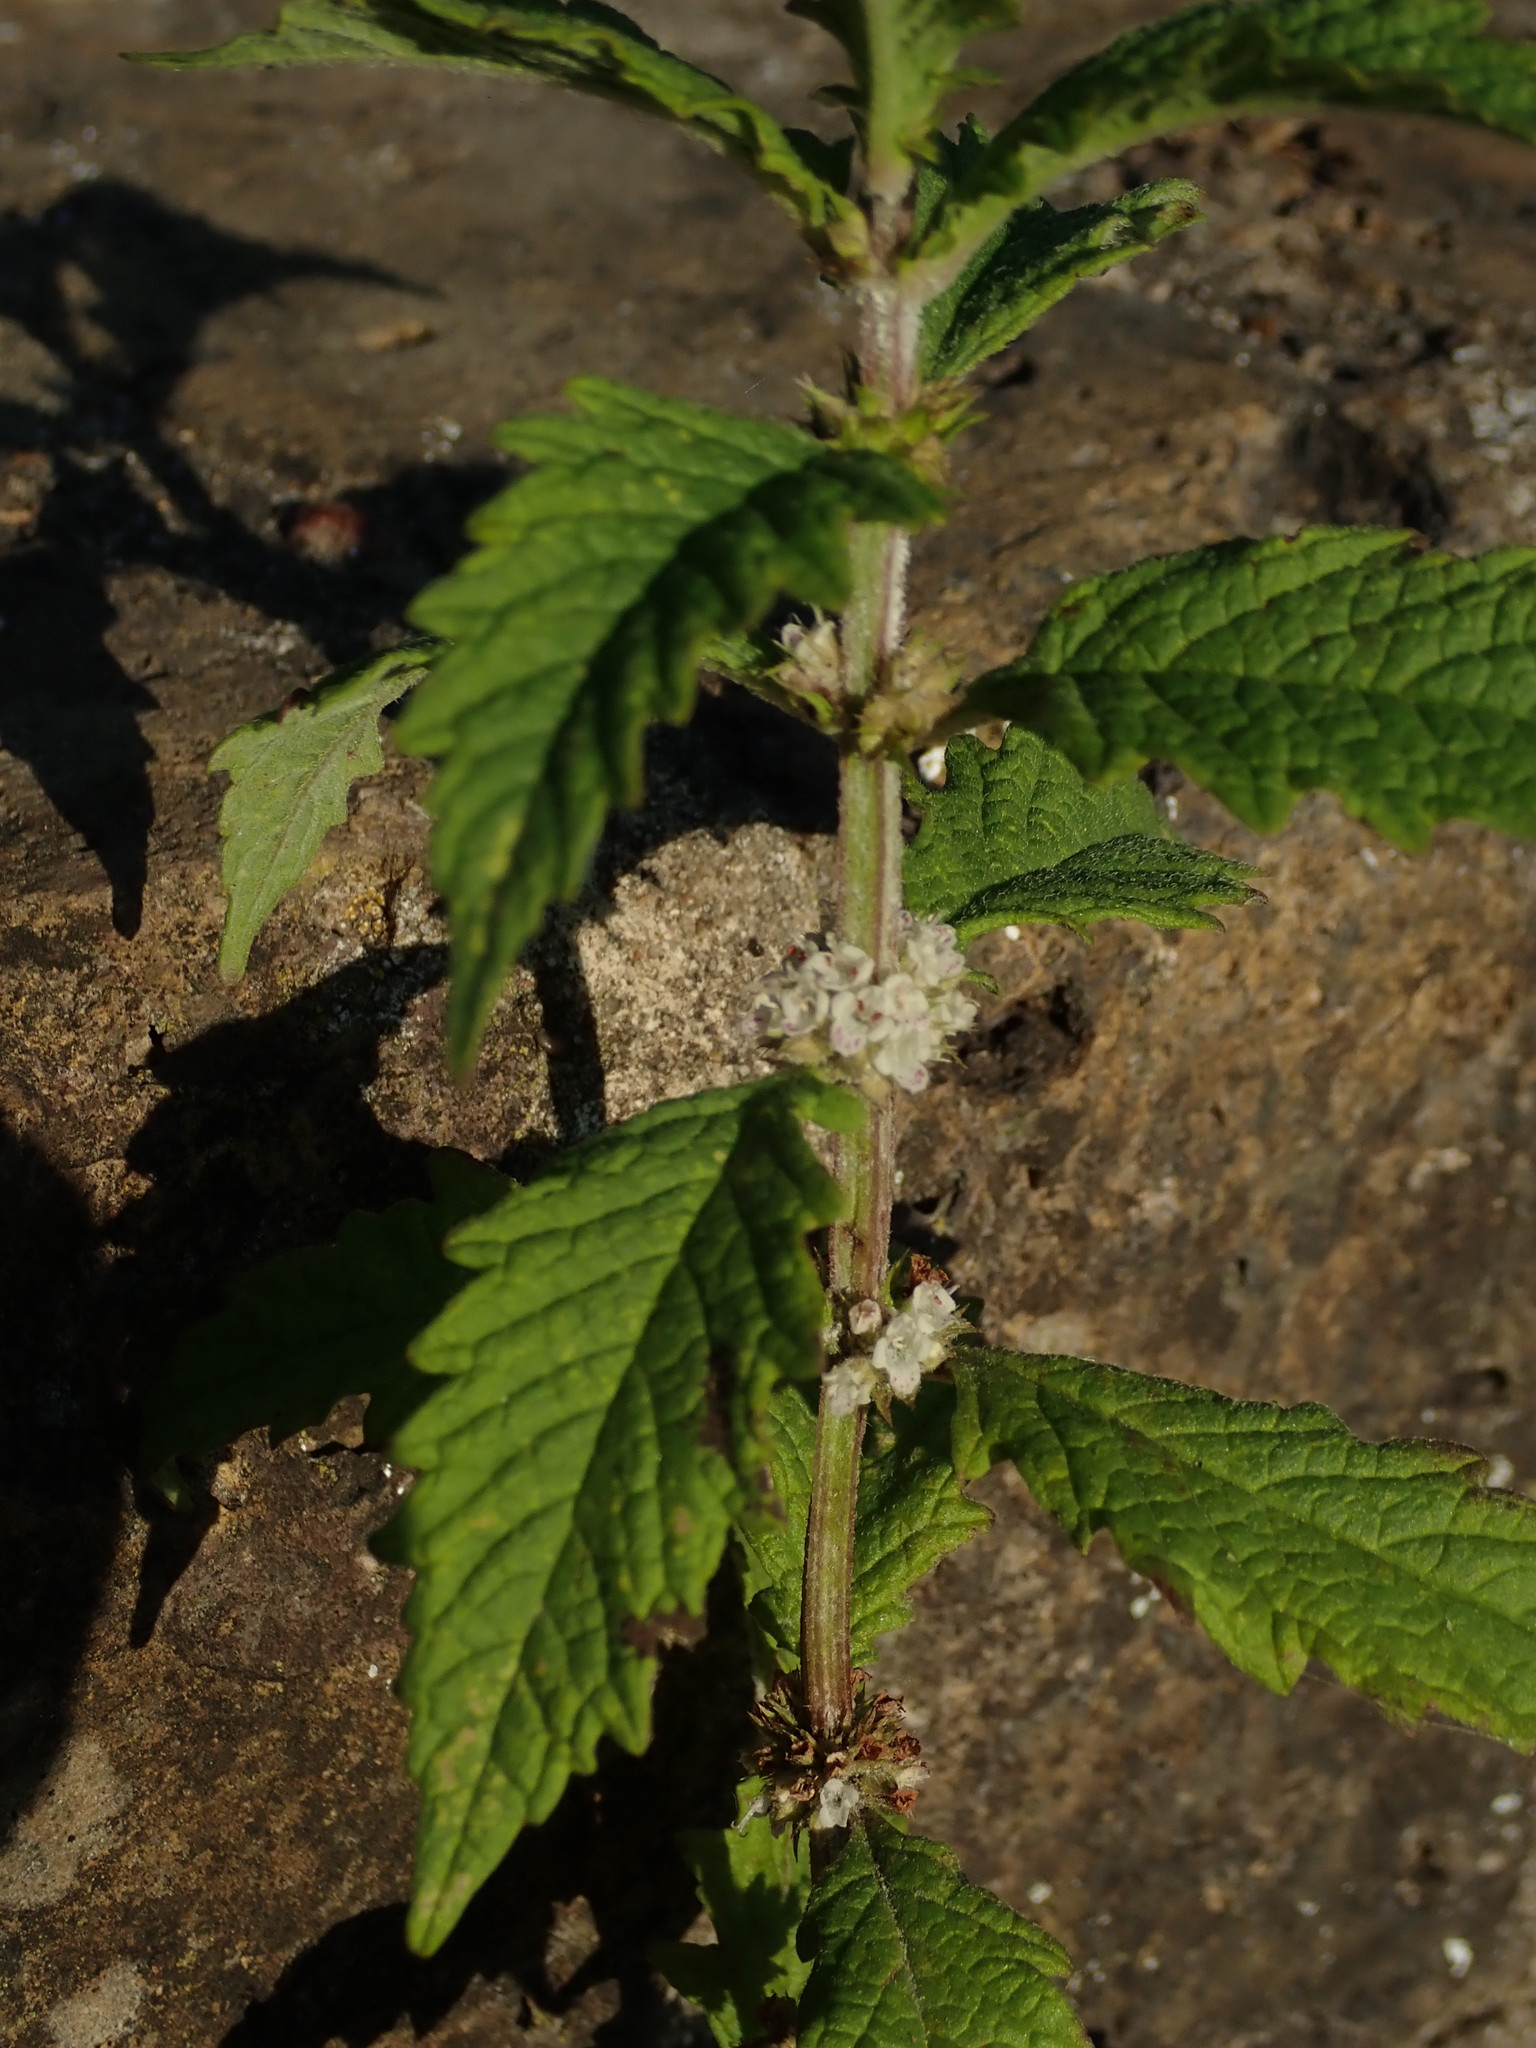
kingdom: Plantae
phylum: Tracheophyta
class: Magnoliopsida
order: Lamiales
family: Lamiaceae
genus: Lycopus
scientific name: Lycopus europaeus
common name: European bugleweed
